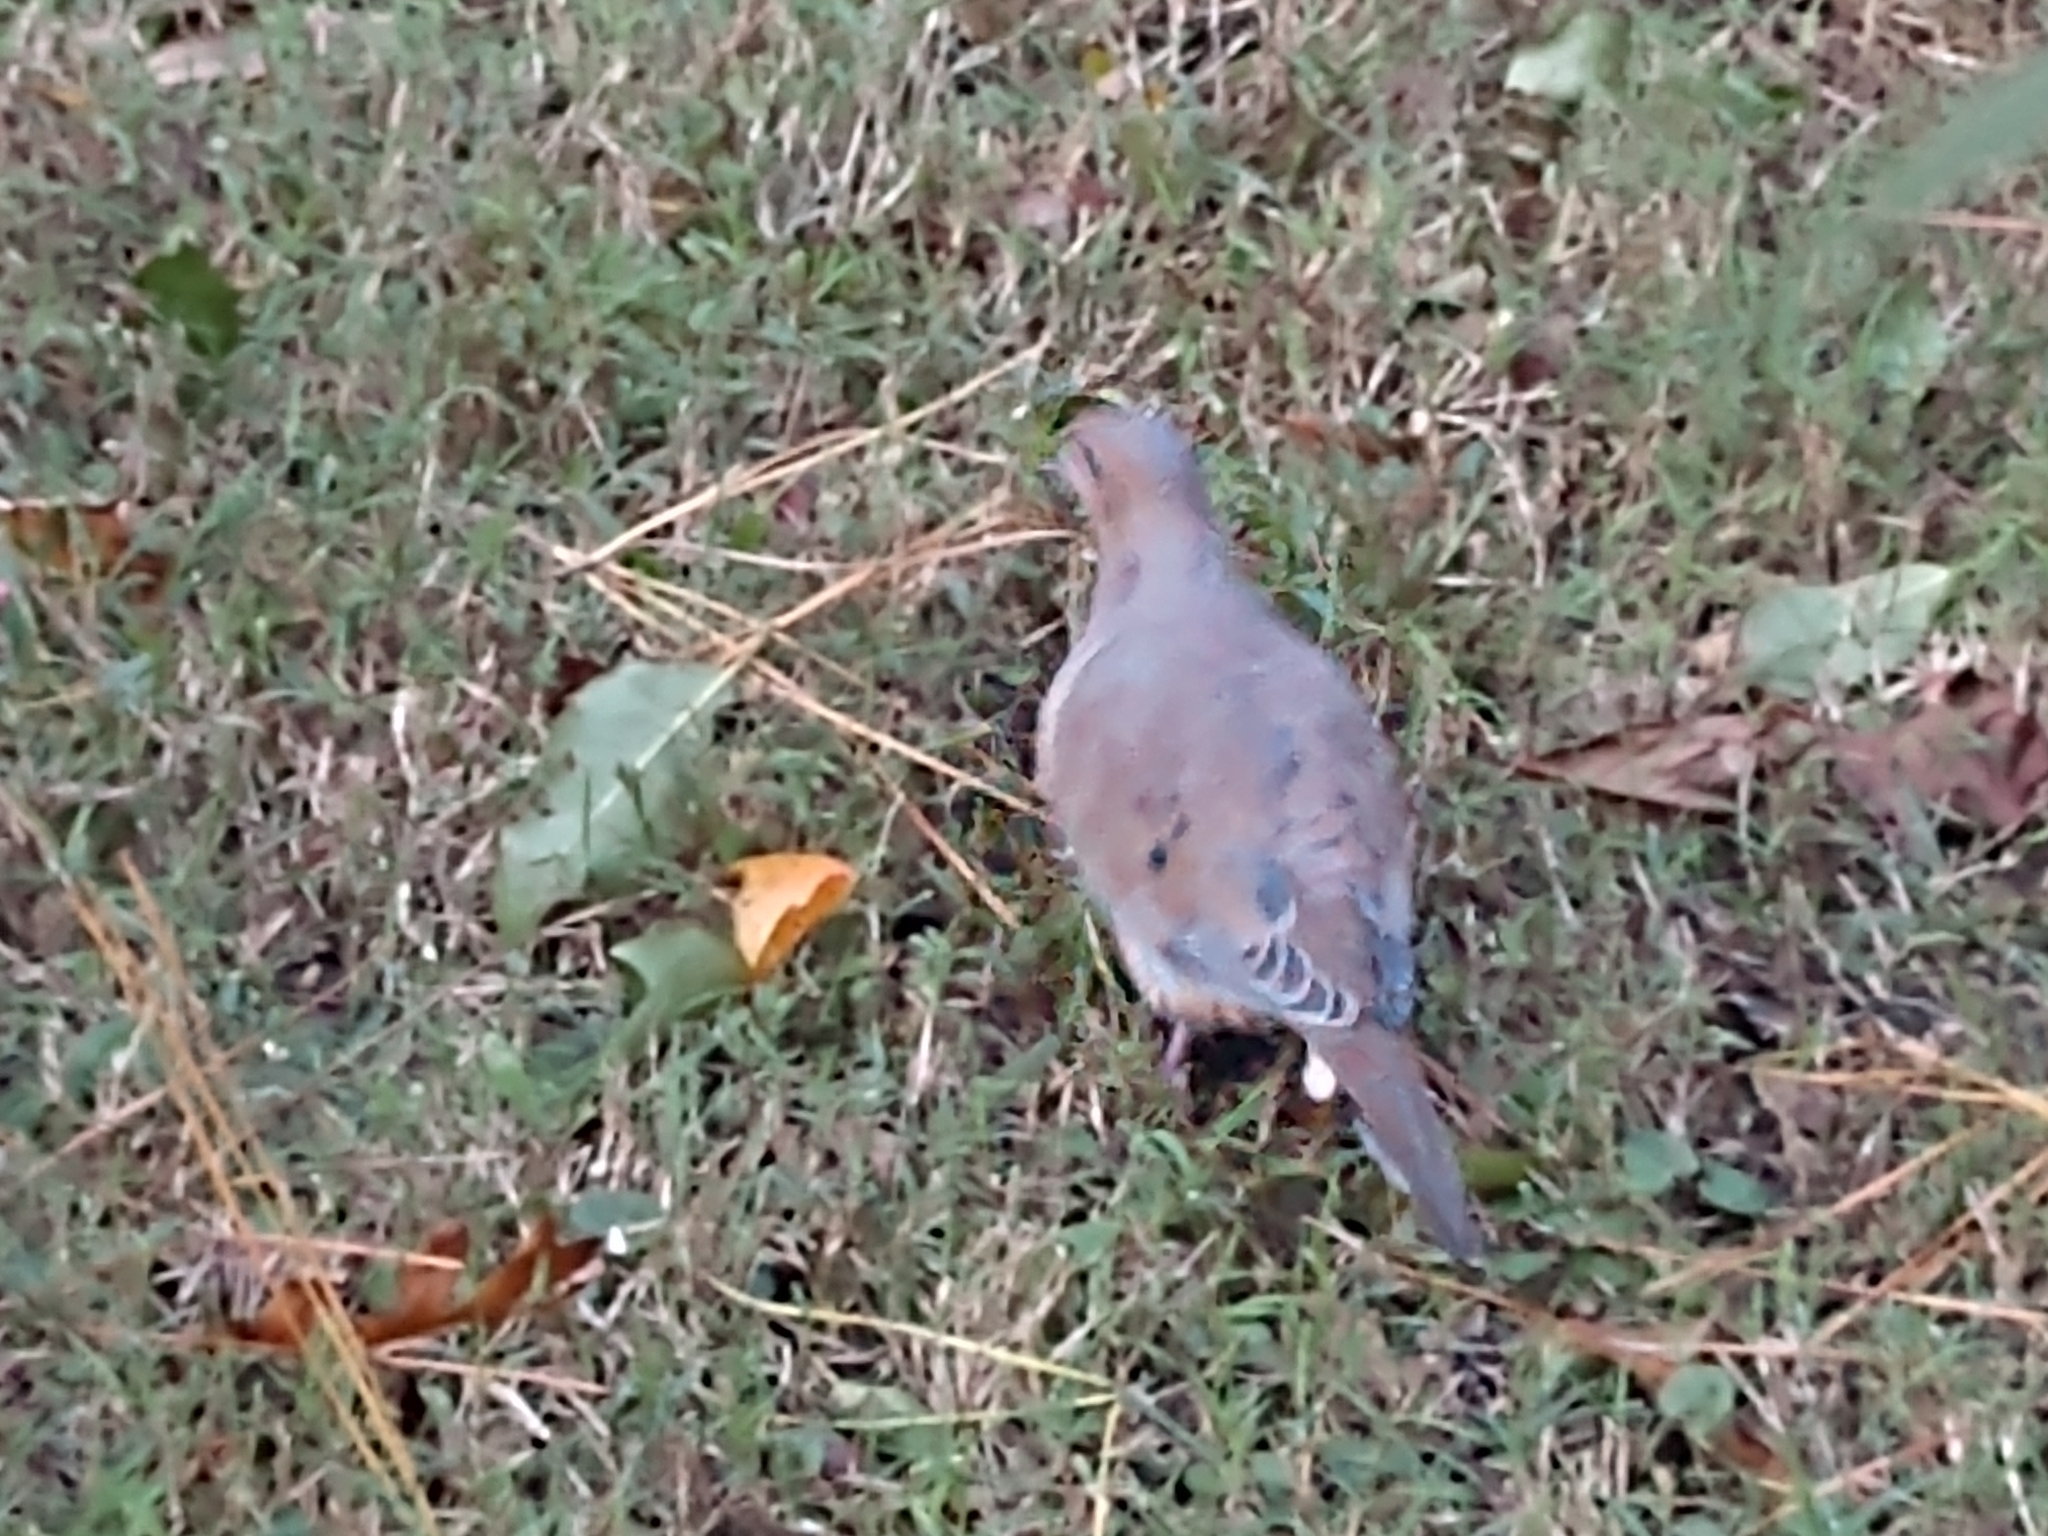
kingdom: Animalia
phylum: Chordata
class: Aves
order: Columbiformes
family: Columbidae
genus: Zenaida
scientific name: Zenaida macroura
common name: Mourning dove
